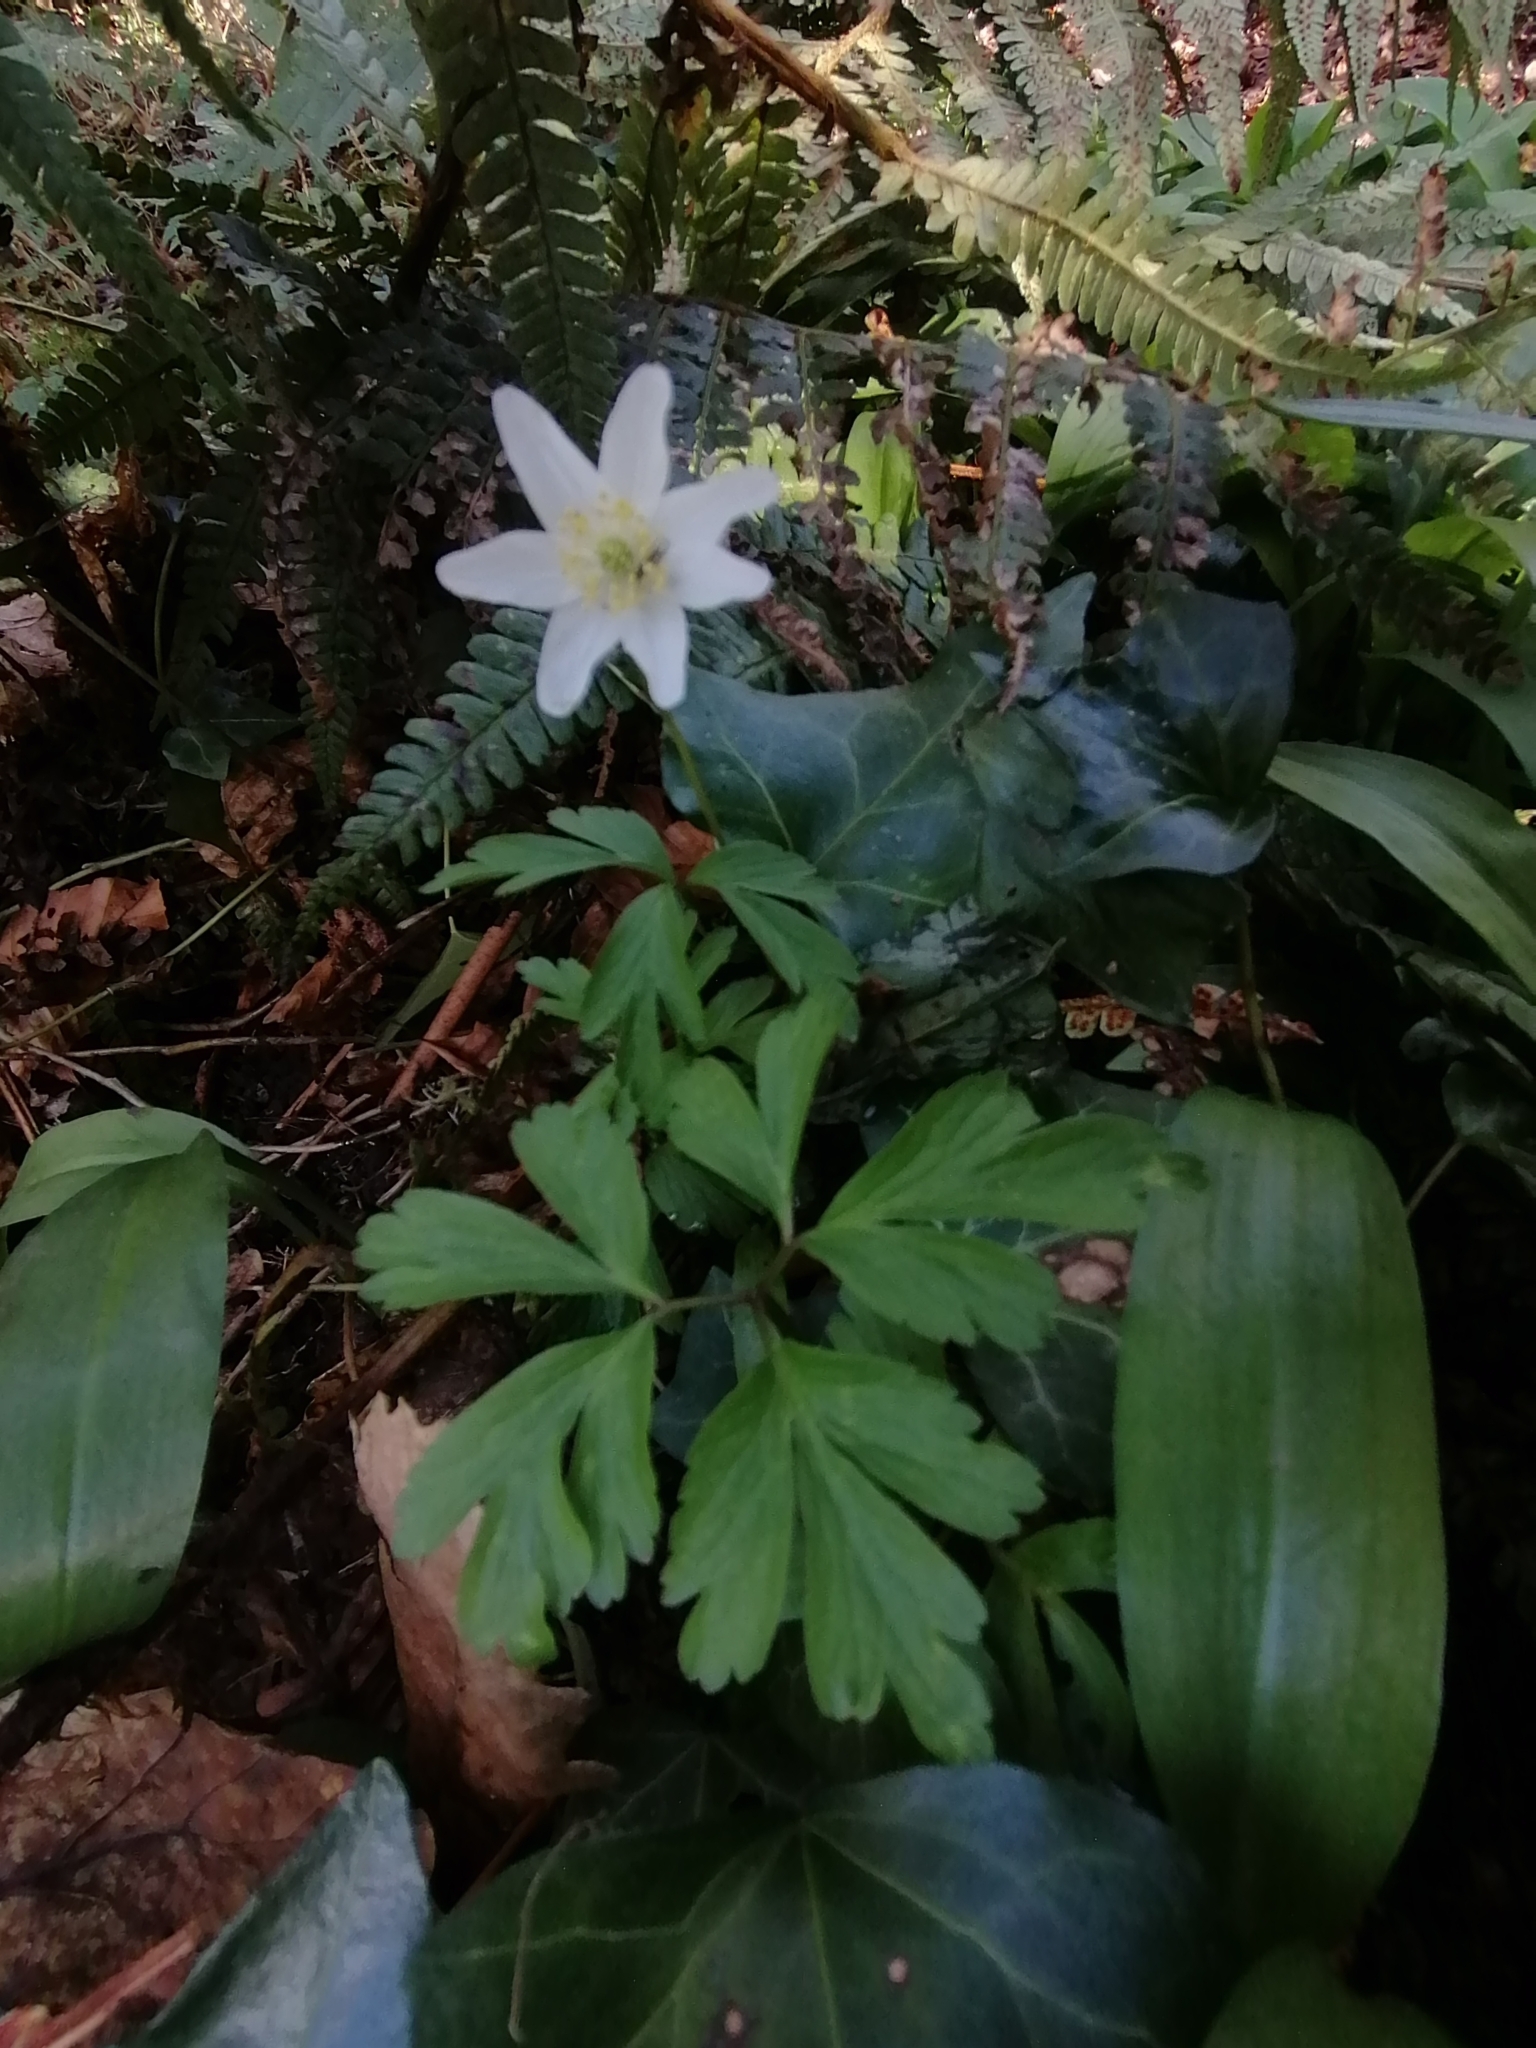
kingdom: Plantae
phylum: Tracheophyta
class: Magnoliopsida
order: Ranunculales
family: Ranunculaceae
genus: Anemone
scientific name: Anemone nemorosa
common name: Wood anemone
